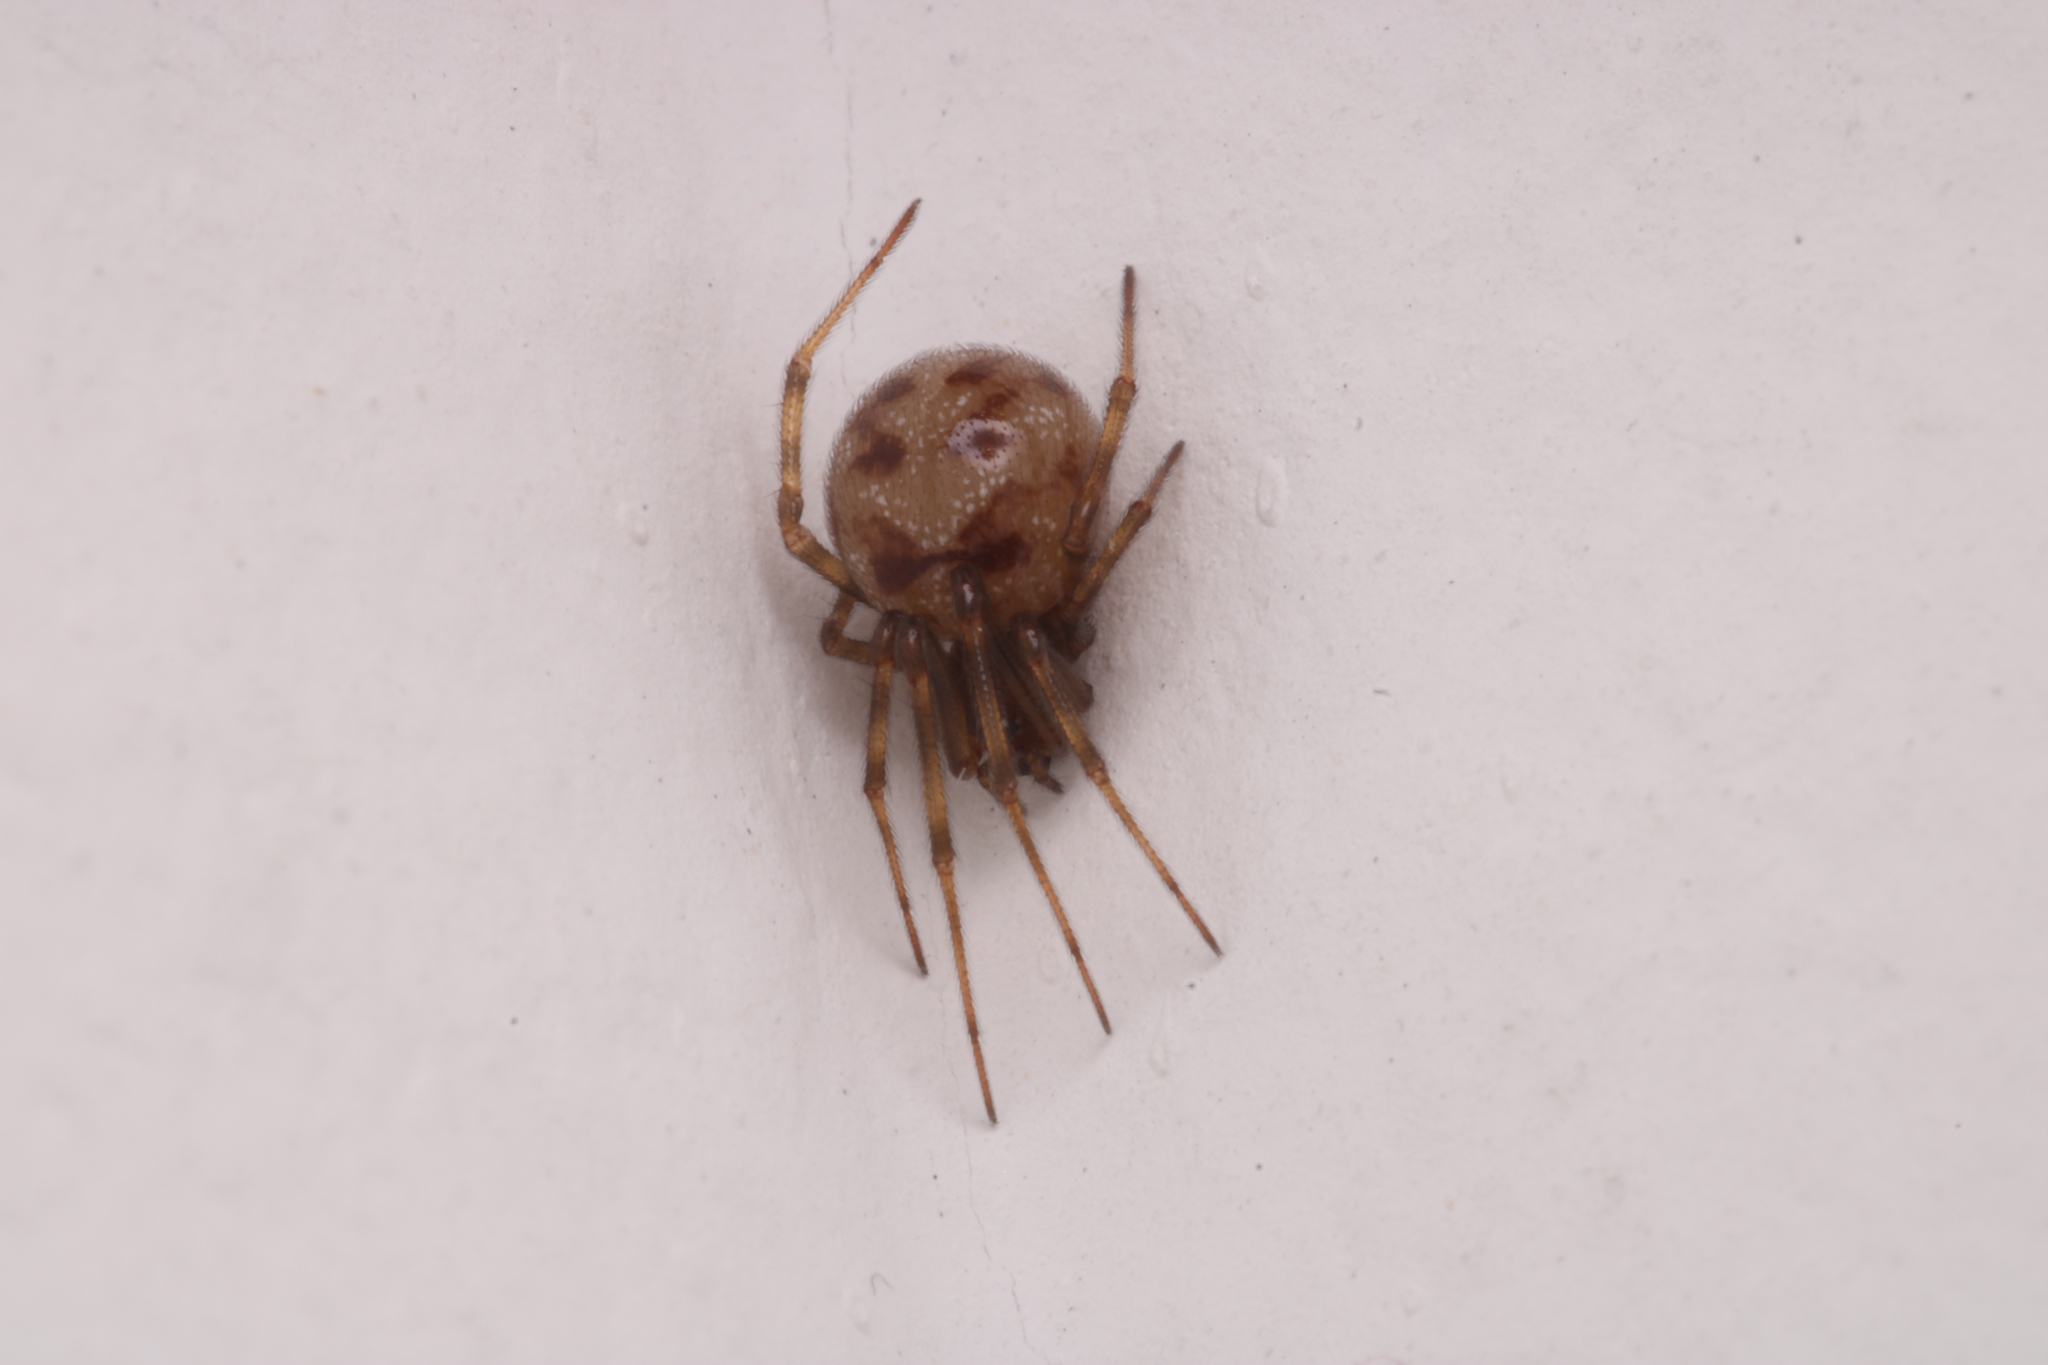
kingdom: Animalia
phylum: Arthropoda
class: Arachnida
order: Araneae
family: Theridiidae
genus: Steatoda
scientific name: Steatoda triangulosa
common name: Triangulate bud spider
